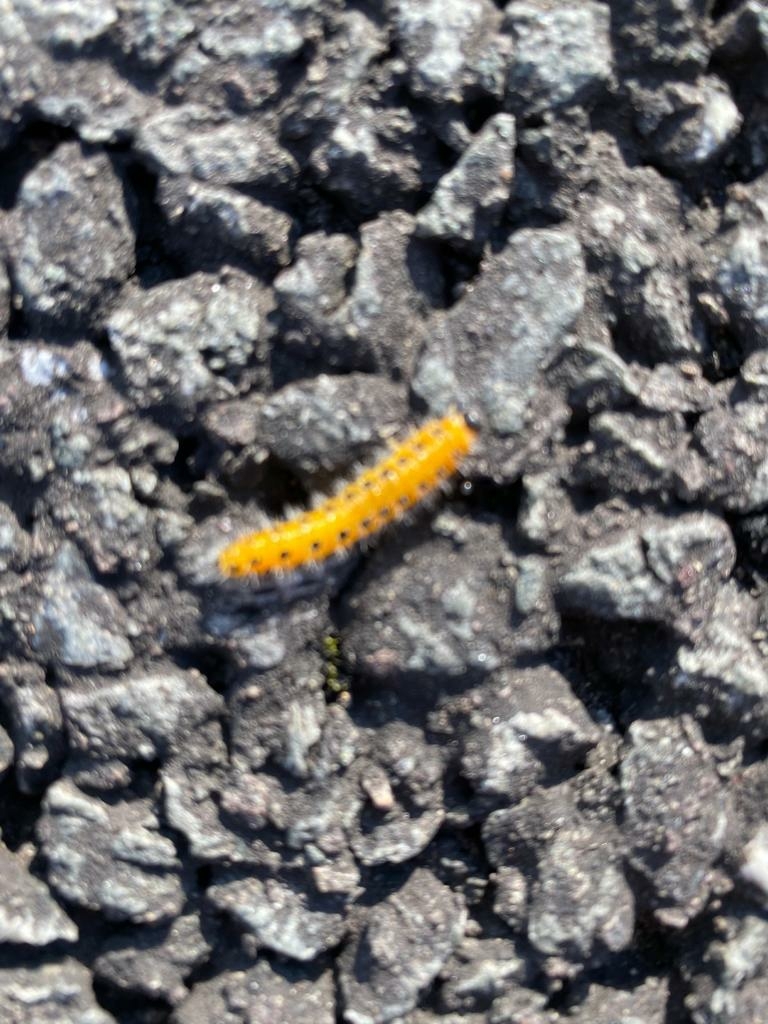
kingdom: Animalia
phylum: Arthropoda
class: Insecta
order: Hymenoptera
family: Tenthredinidae
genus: Cladius
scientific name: Cladius grandis
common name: Common sawfly
